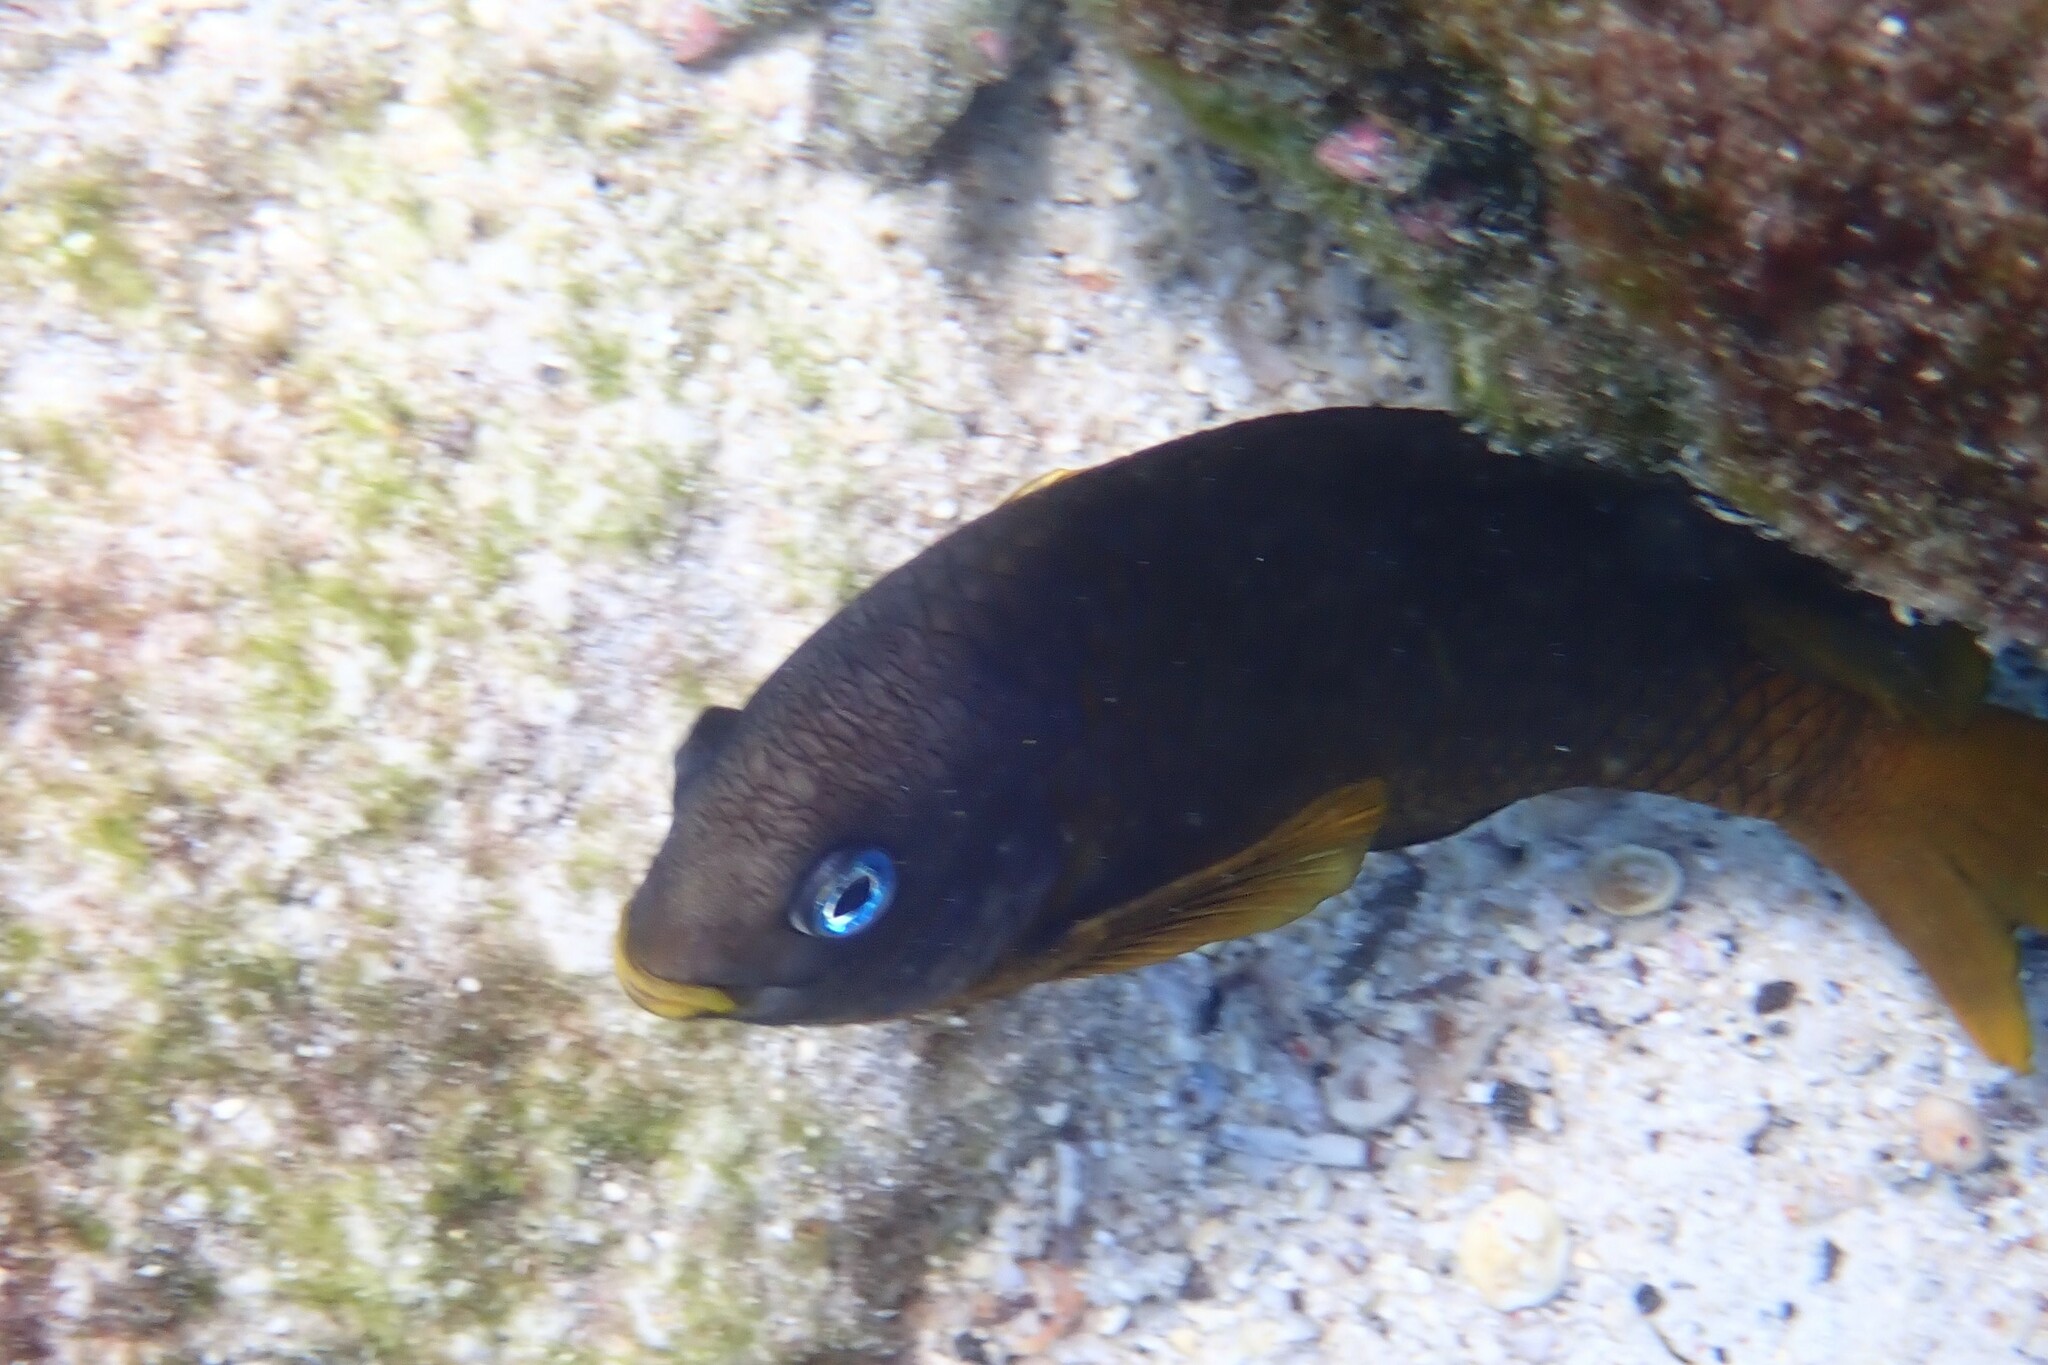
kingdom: Animalia
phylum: Chordata
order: Perciformes
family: Pomacentridae
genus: Stegastes
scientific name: Stegastes arcifrons
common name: Galapagos gregory
